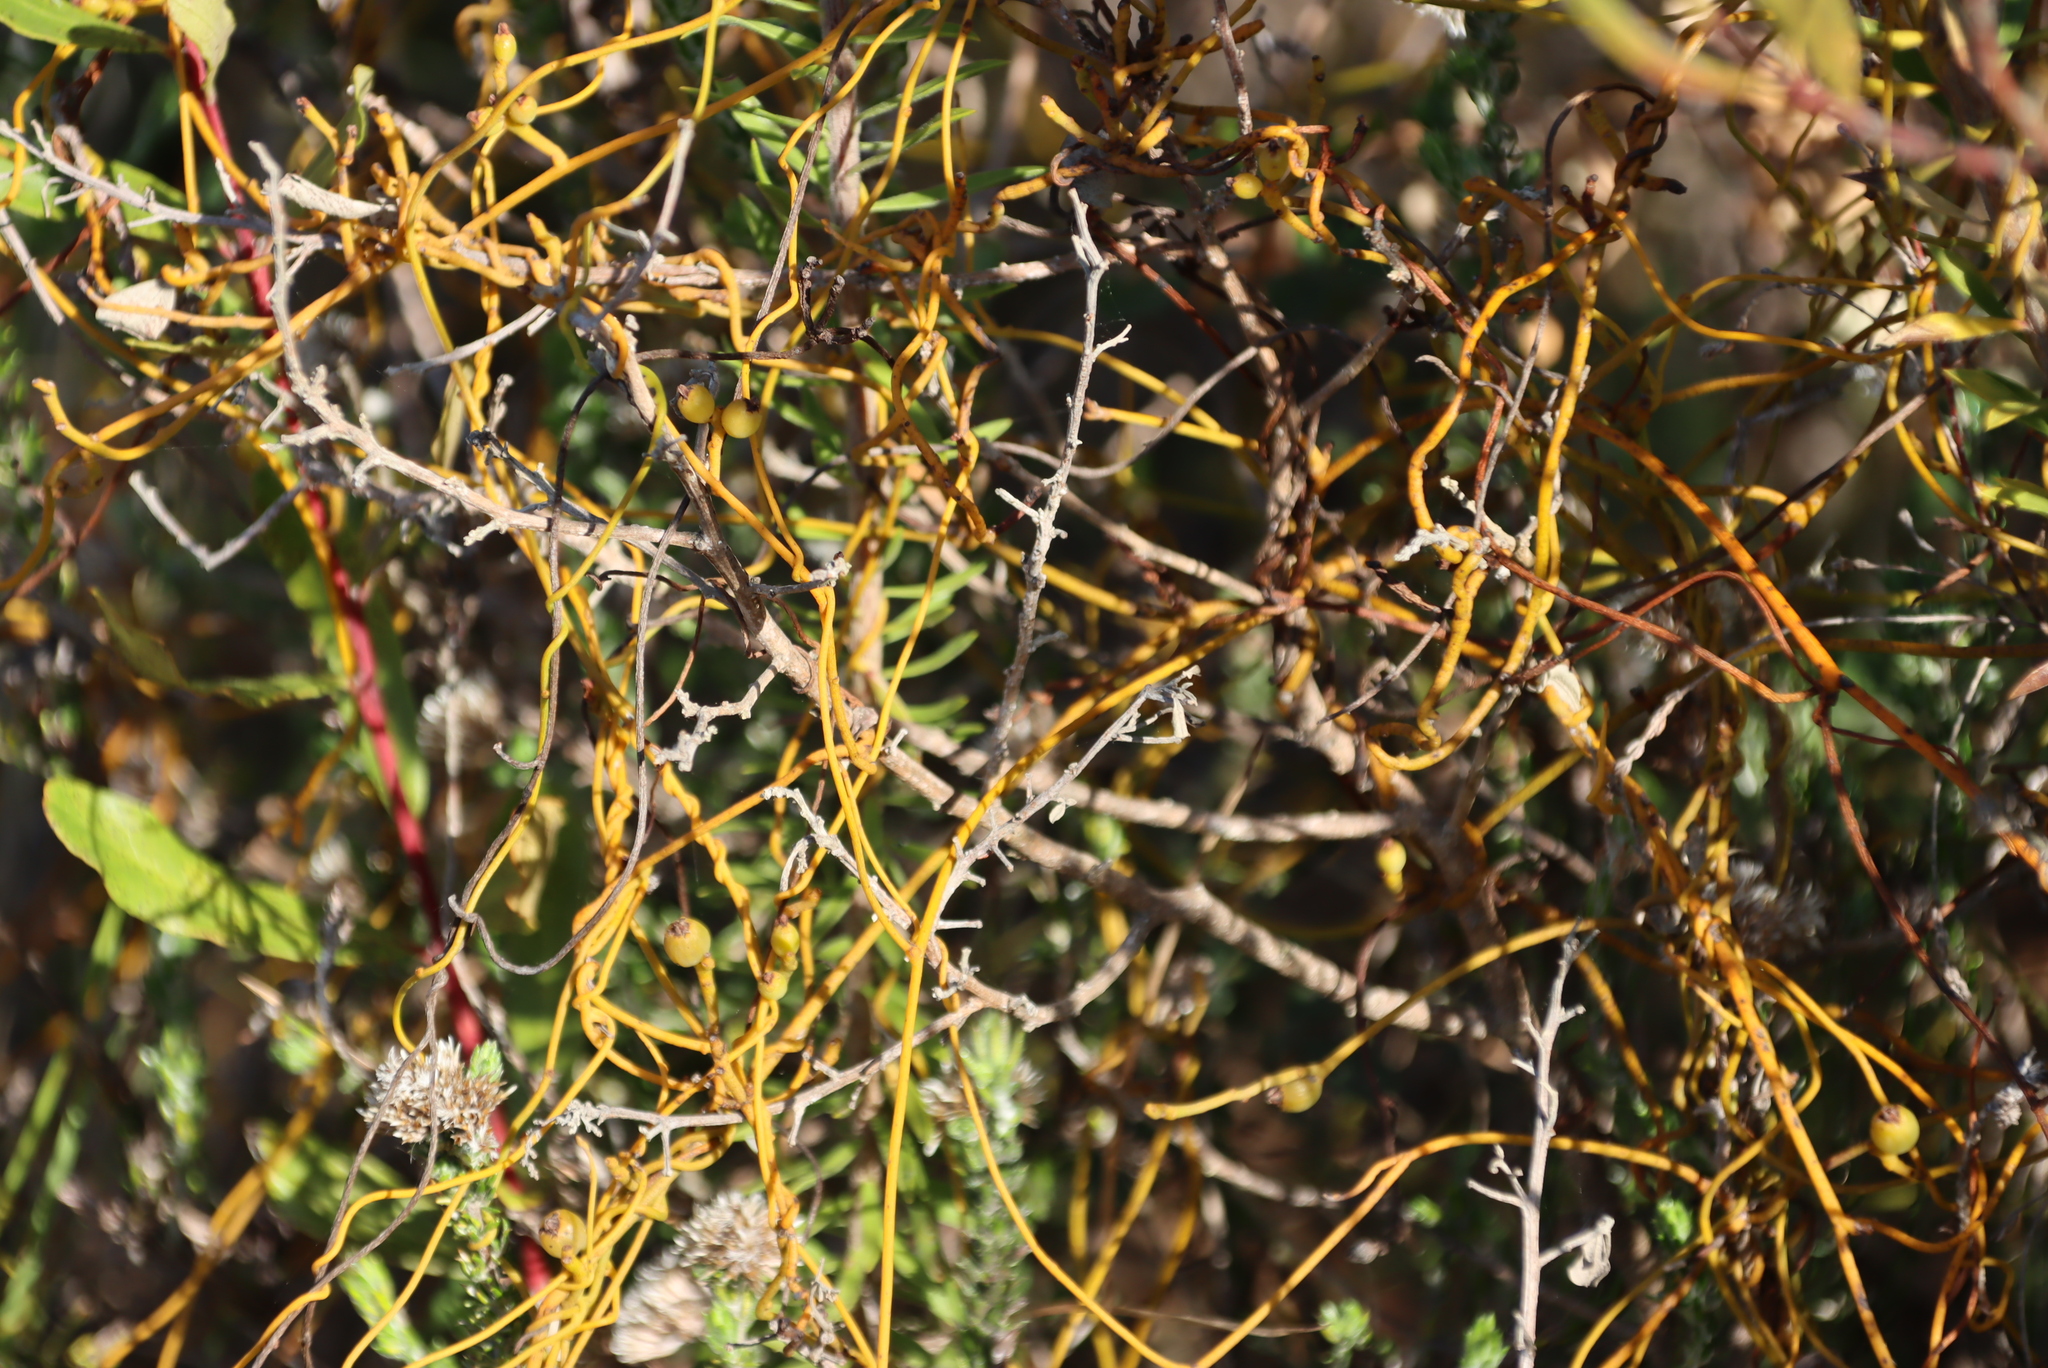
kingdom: Plantae
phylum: Tracheophyta
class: Magnoliopsida
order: Laurales
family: Lauraceae
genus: Cassytha
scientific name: Cassytha ciliolata
